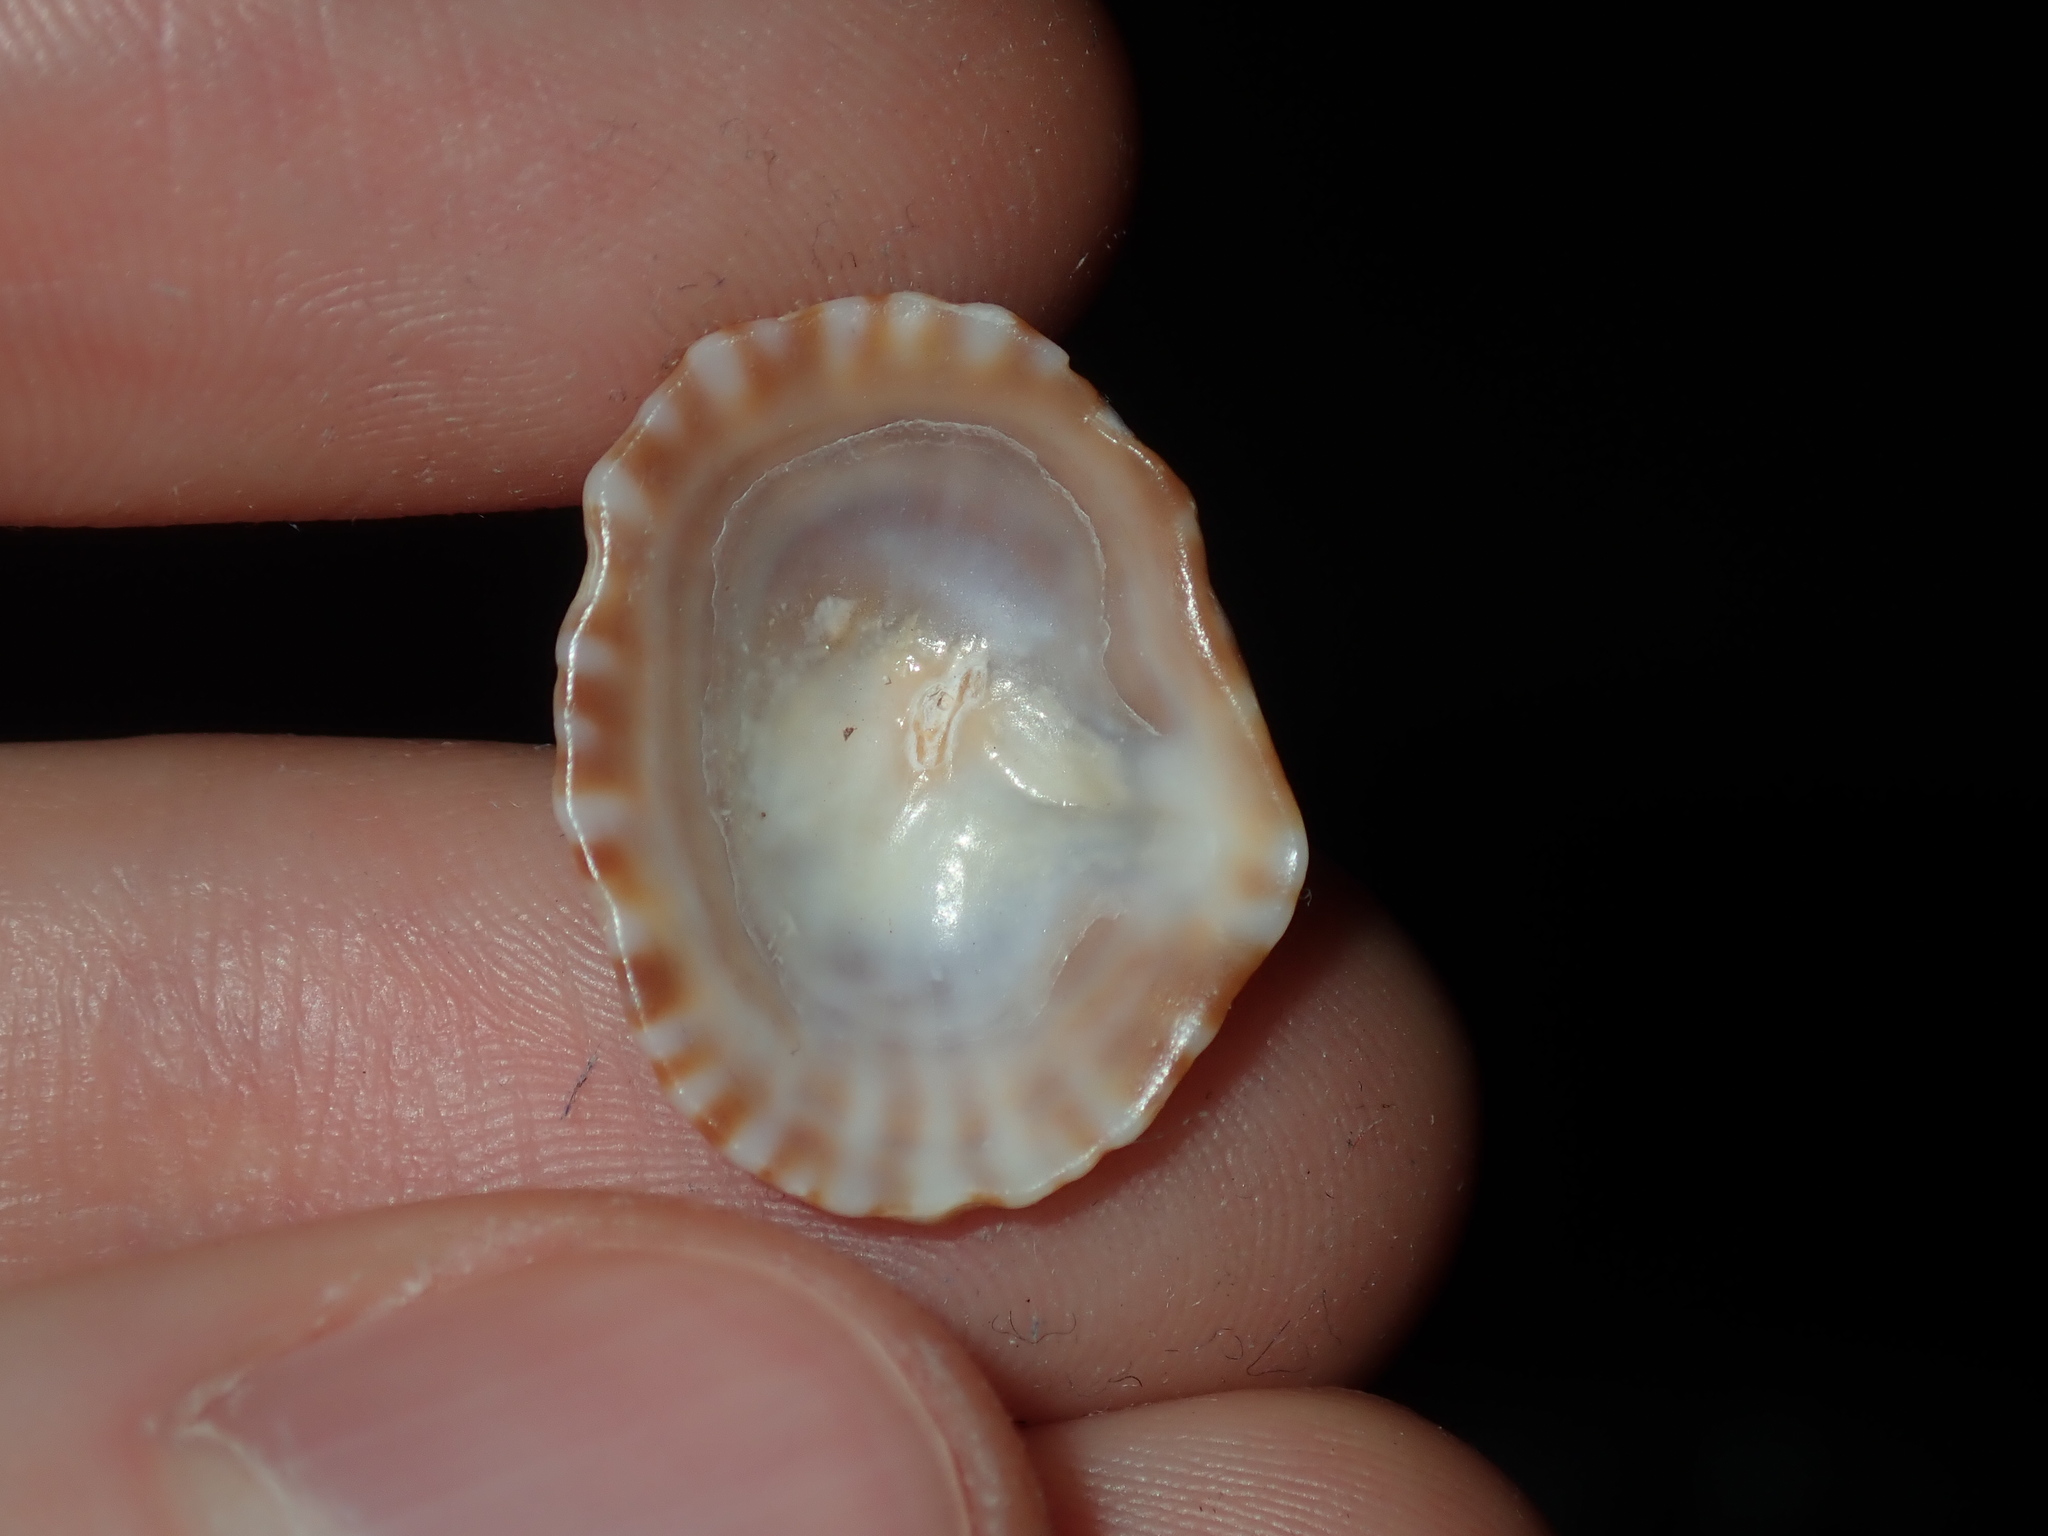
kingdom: Animalia
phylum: Mollusca
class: Gastropoda
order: Siphonariida
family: Siphonariidae
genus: Siphonaria
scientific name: Siphonaria denticulata
